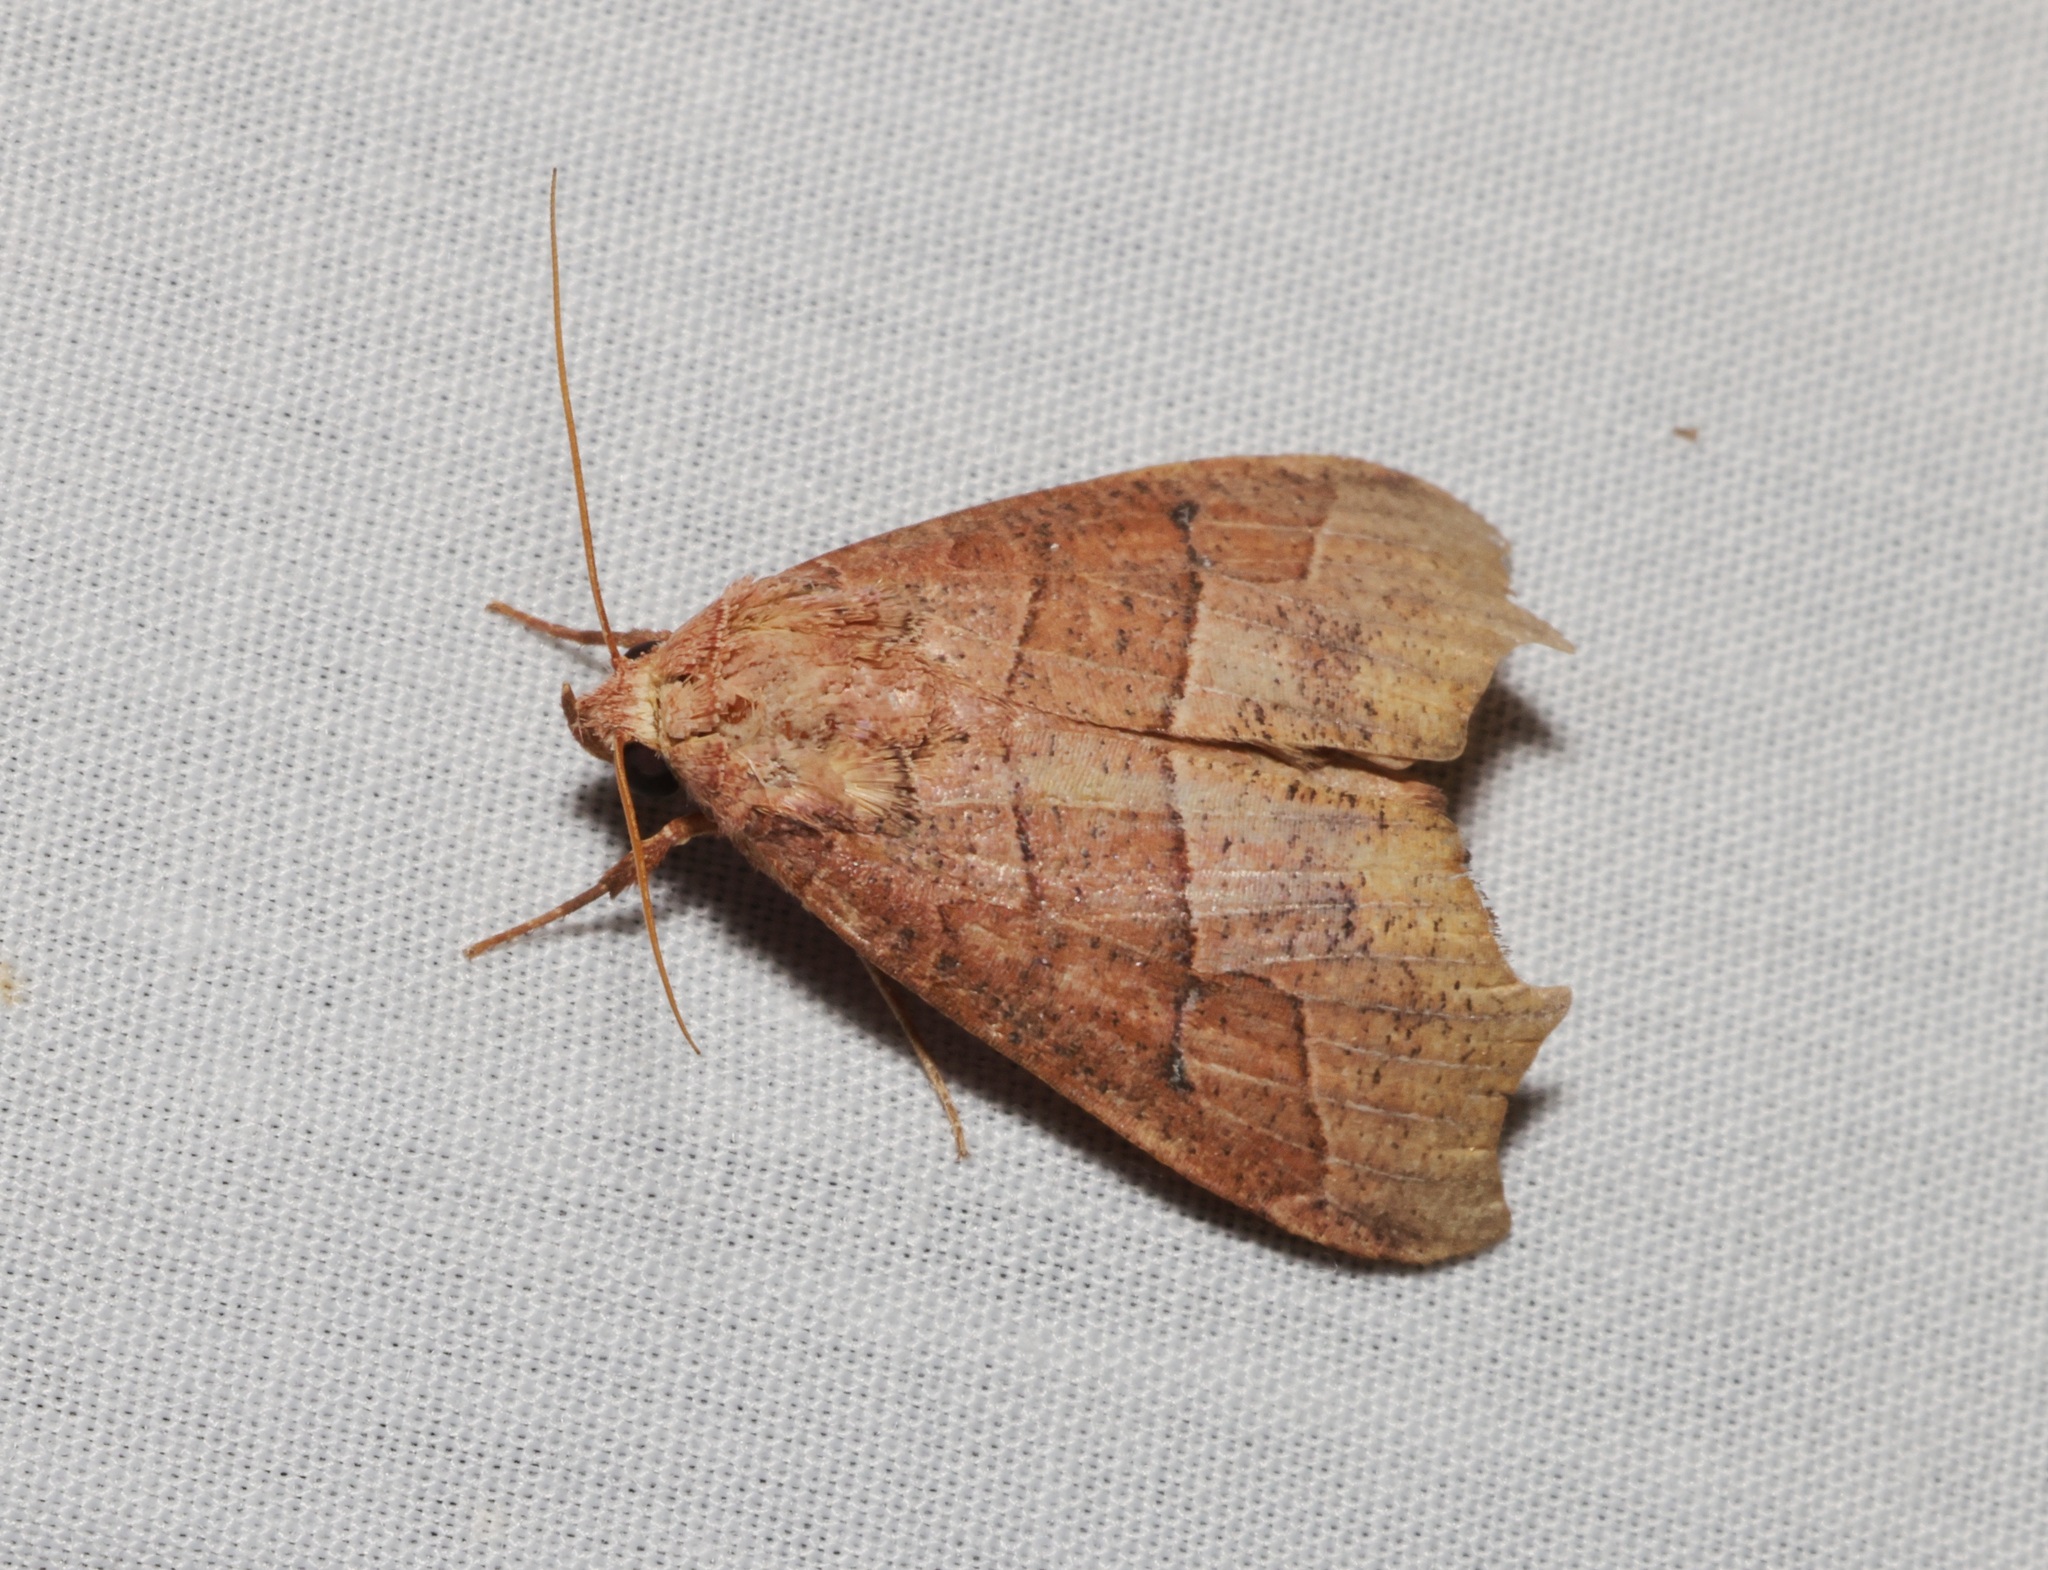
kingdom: Animalia
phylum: Arthropoda
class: Insecta
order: Lepidoptera
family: Erebidae
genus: Gonitis
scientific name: Gonitis mesogona
